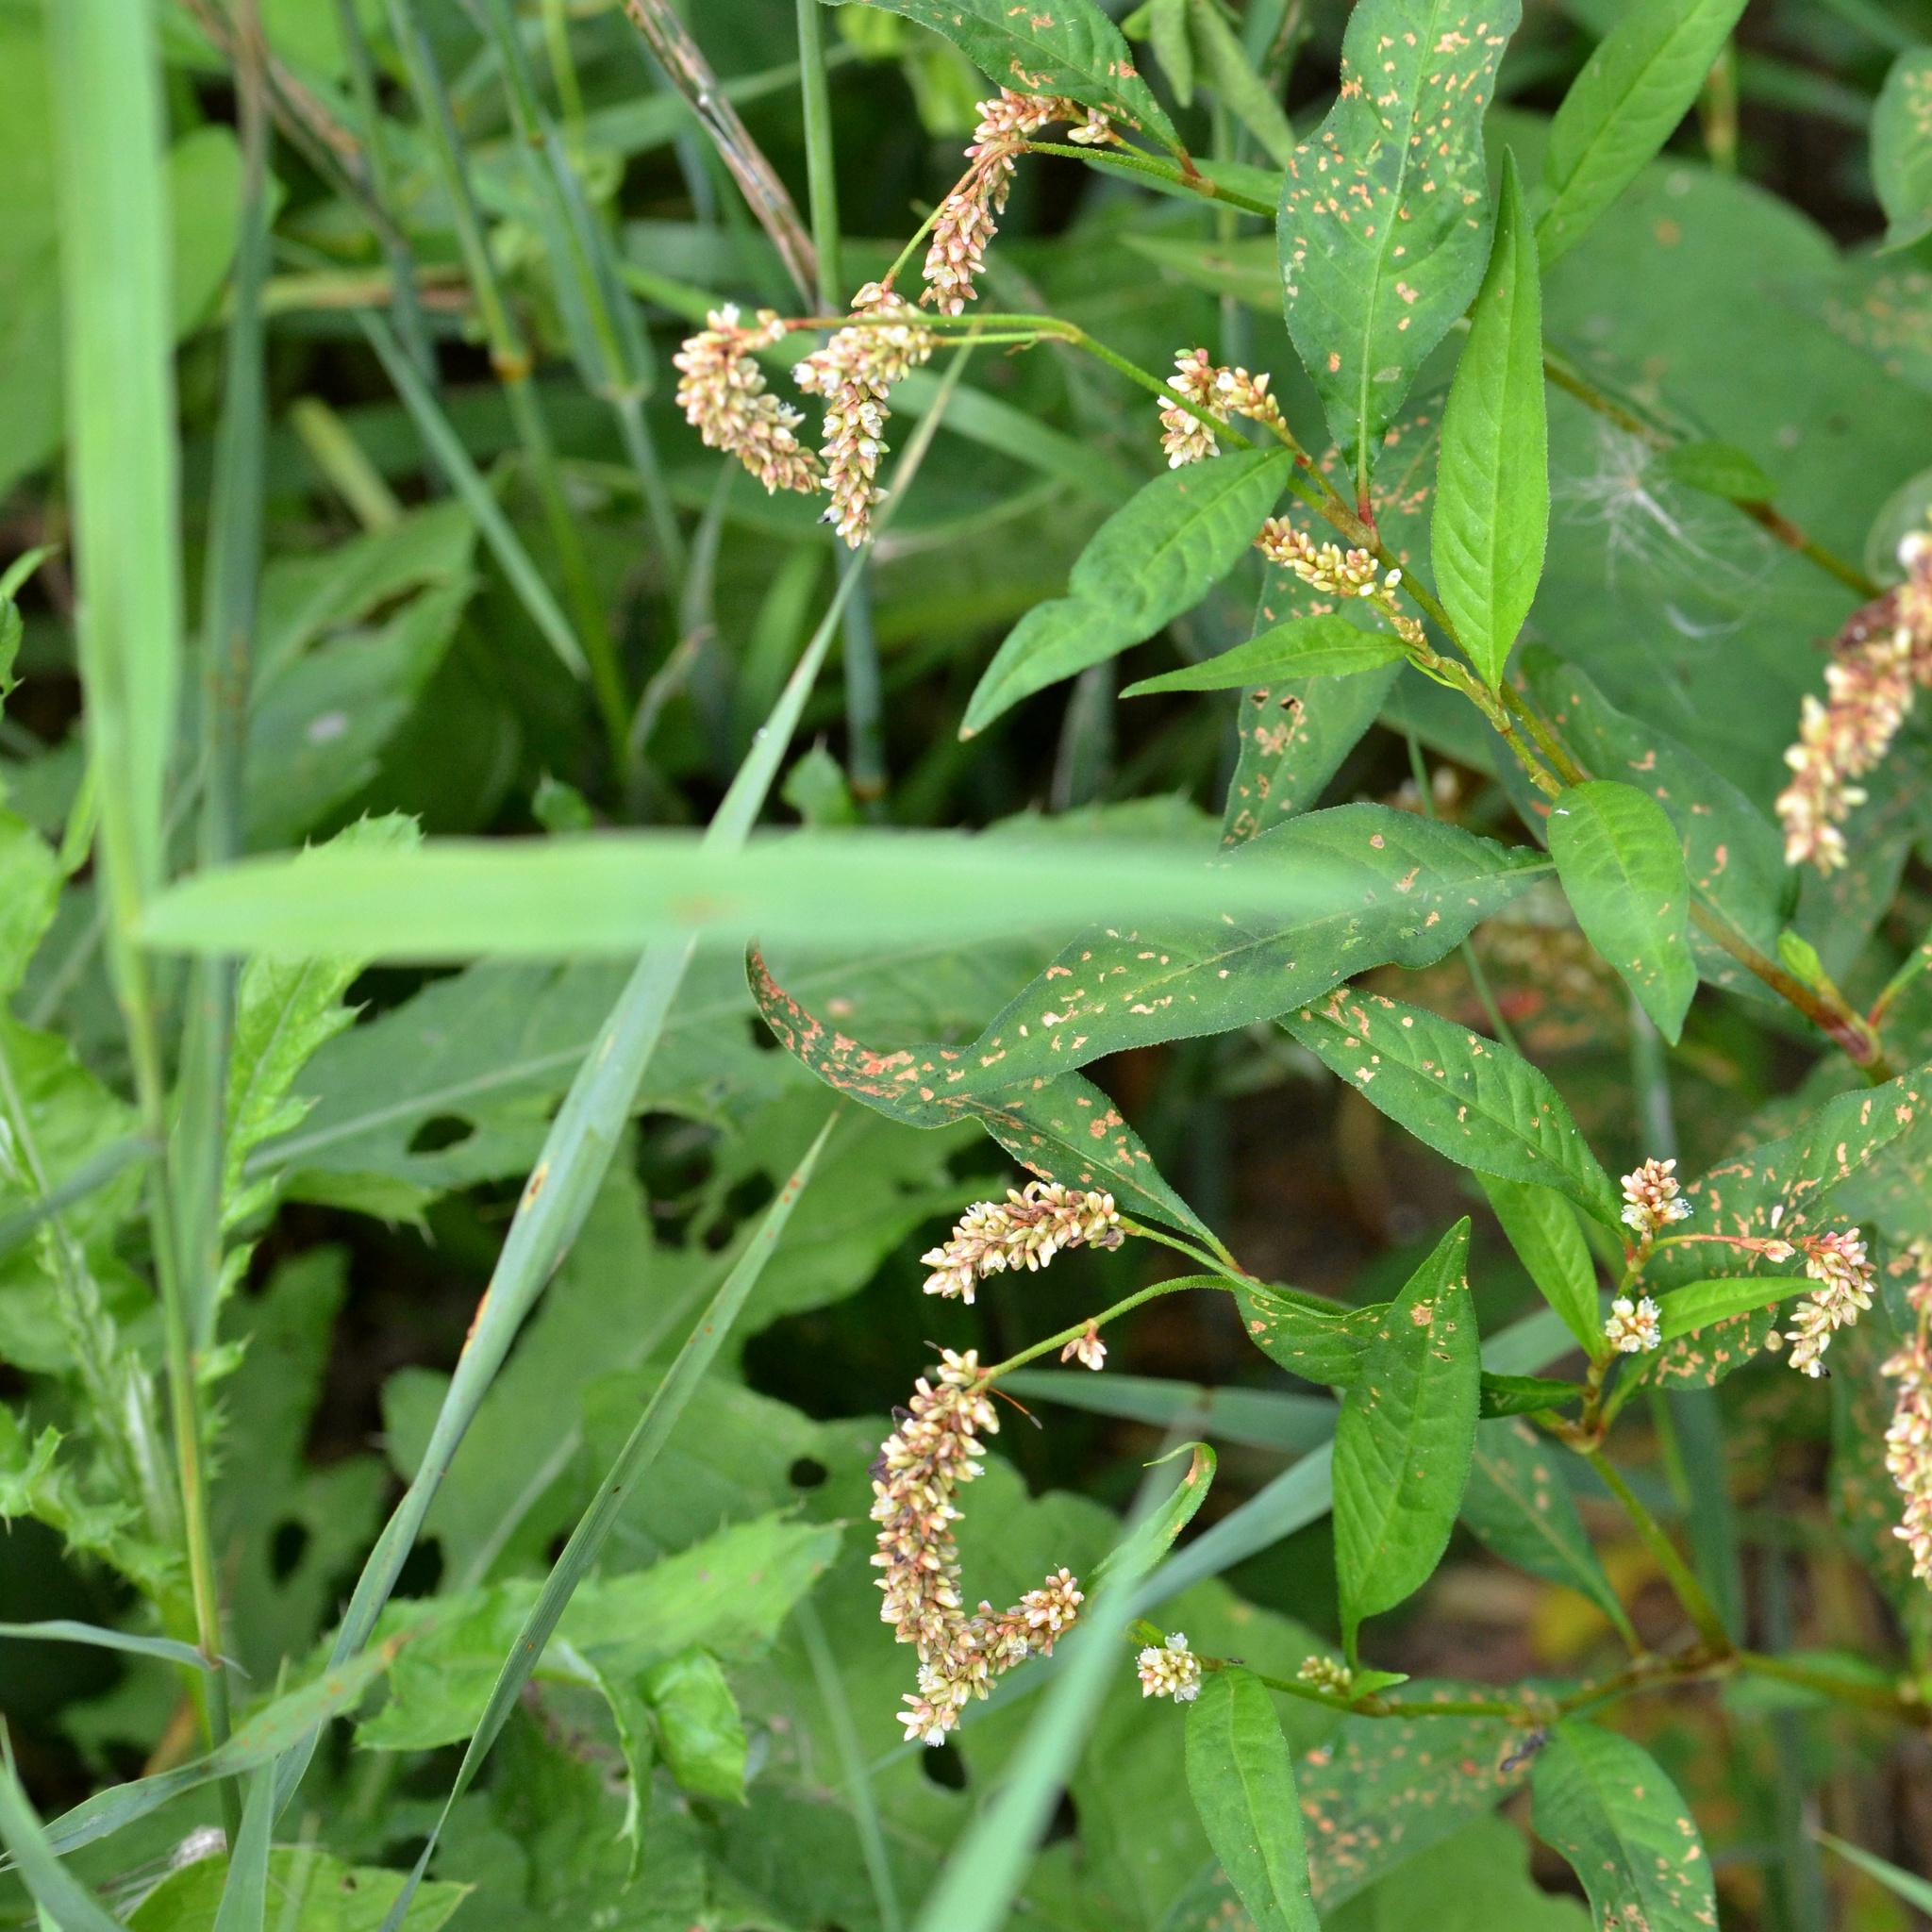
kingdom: Plantae
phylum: Tracheophyta
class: Magnoliopsida
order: Caryophyllales
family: Polygonaceae
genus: Persicaria
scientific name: Persicaria lapathifolia
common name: Curlytop knotweed
